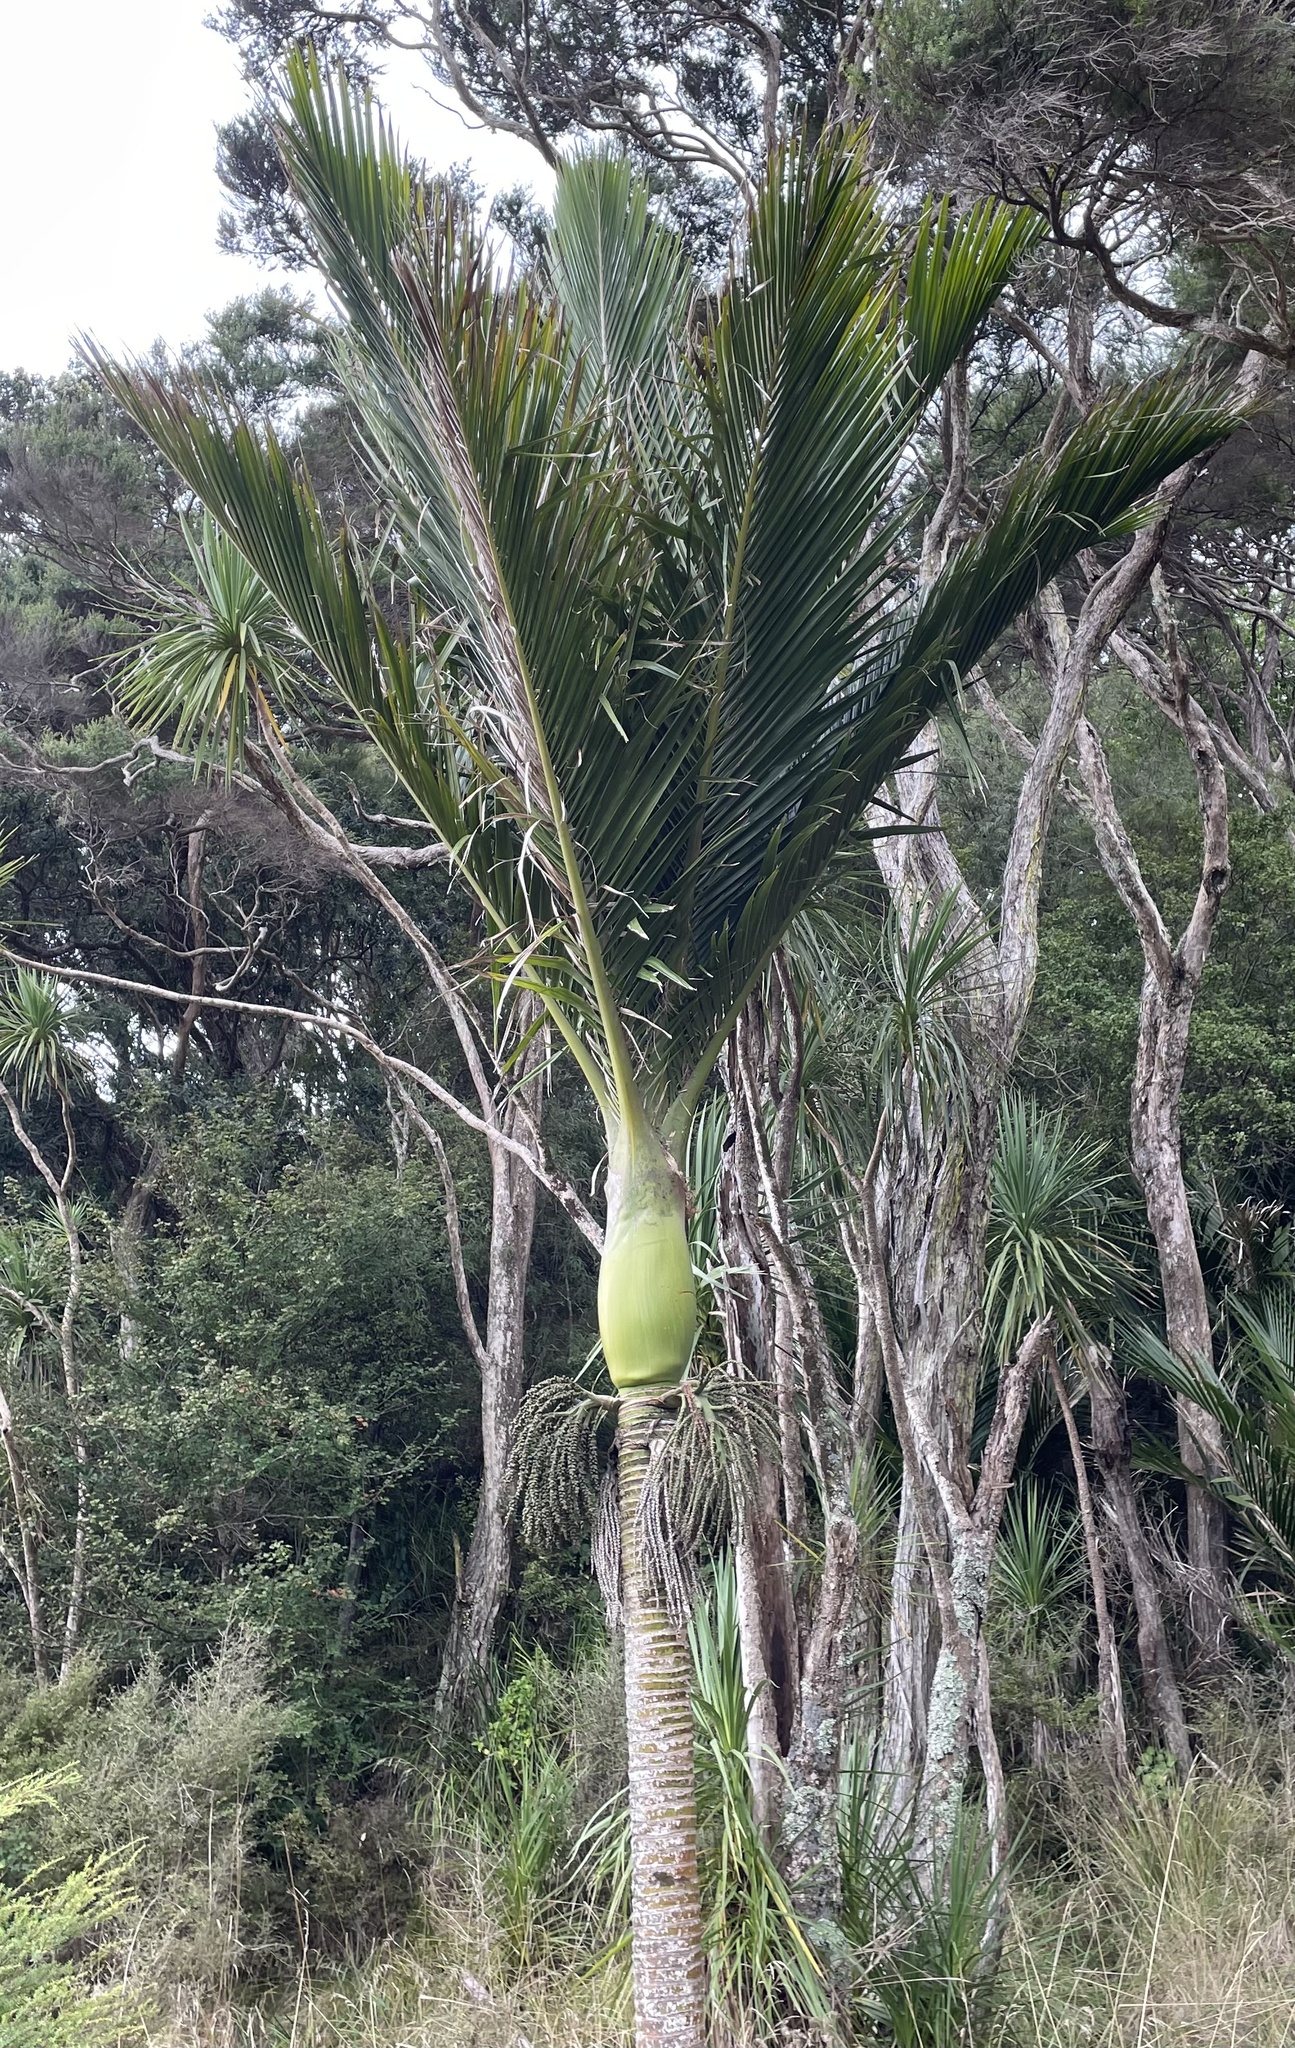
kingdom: Plantae
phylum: Tracheophyta
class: Liliopsida
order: Arecales
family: Arecaceae
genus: Rhopalostylis
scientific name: Rhopalostylis sapida
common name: Feather-duster palm
